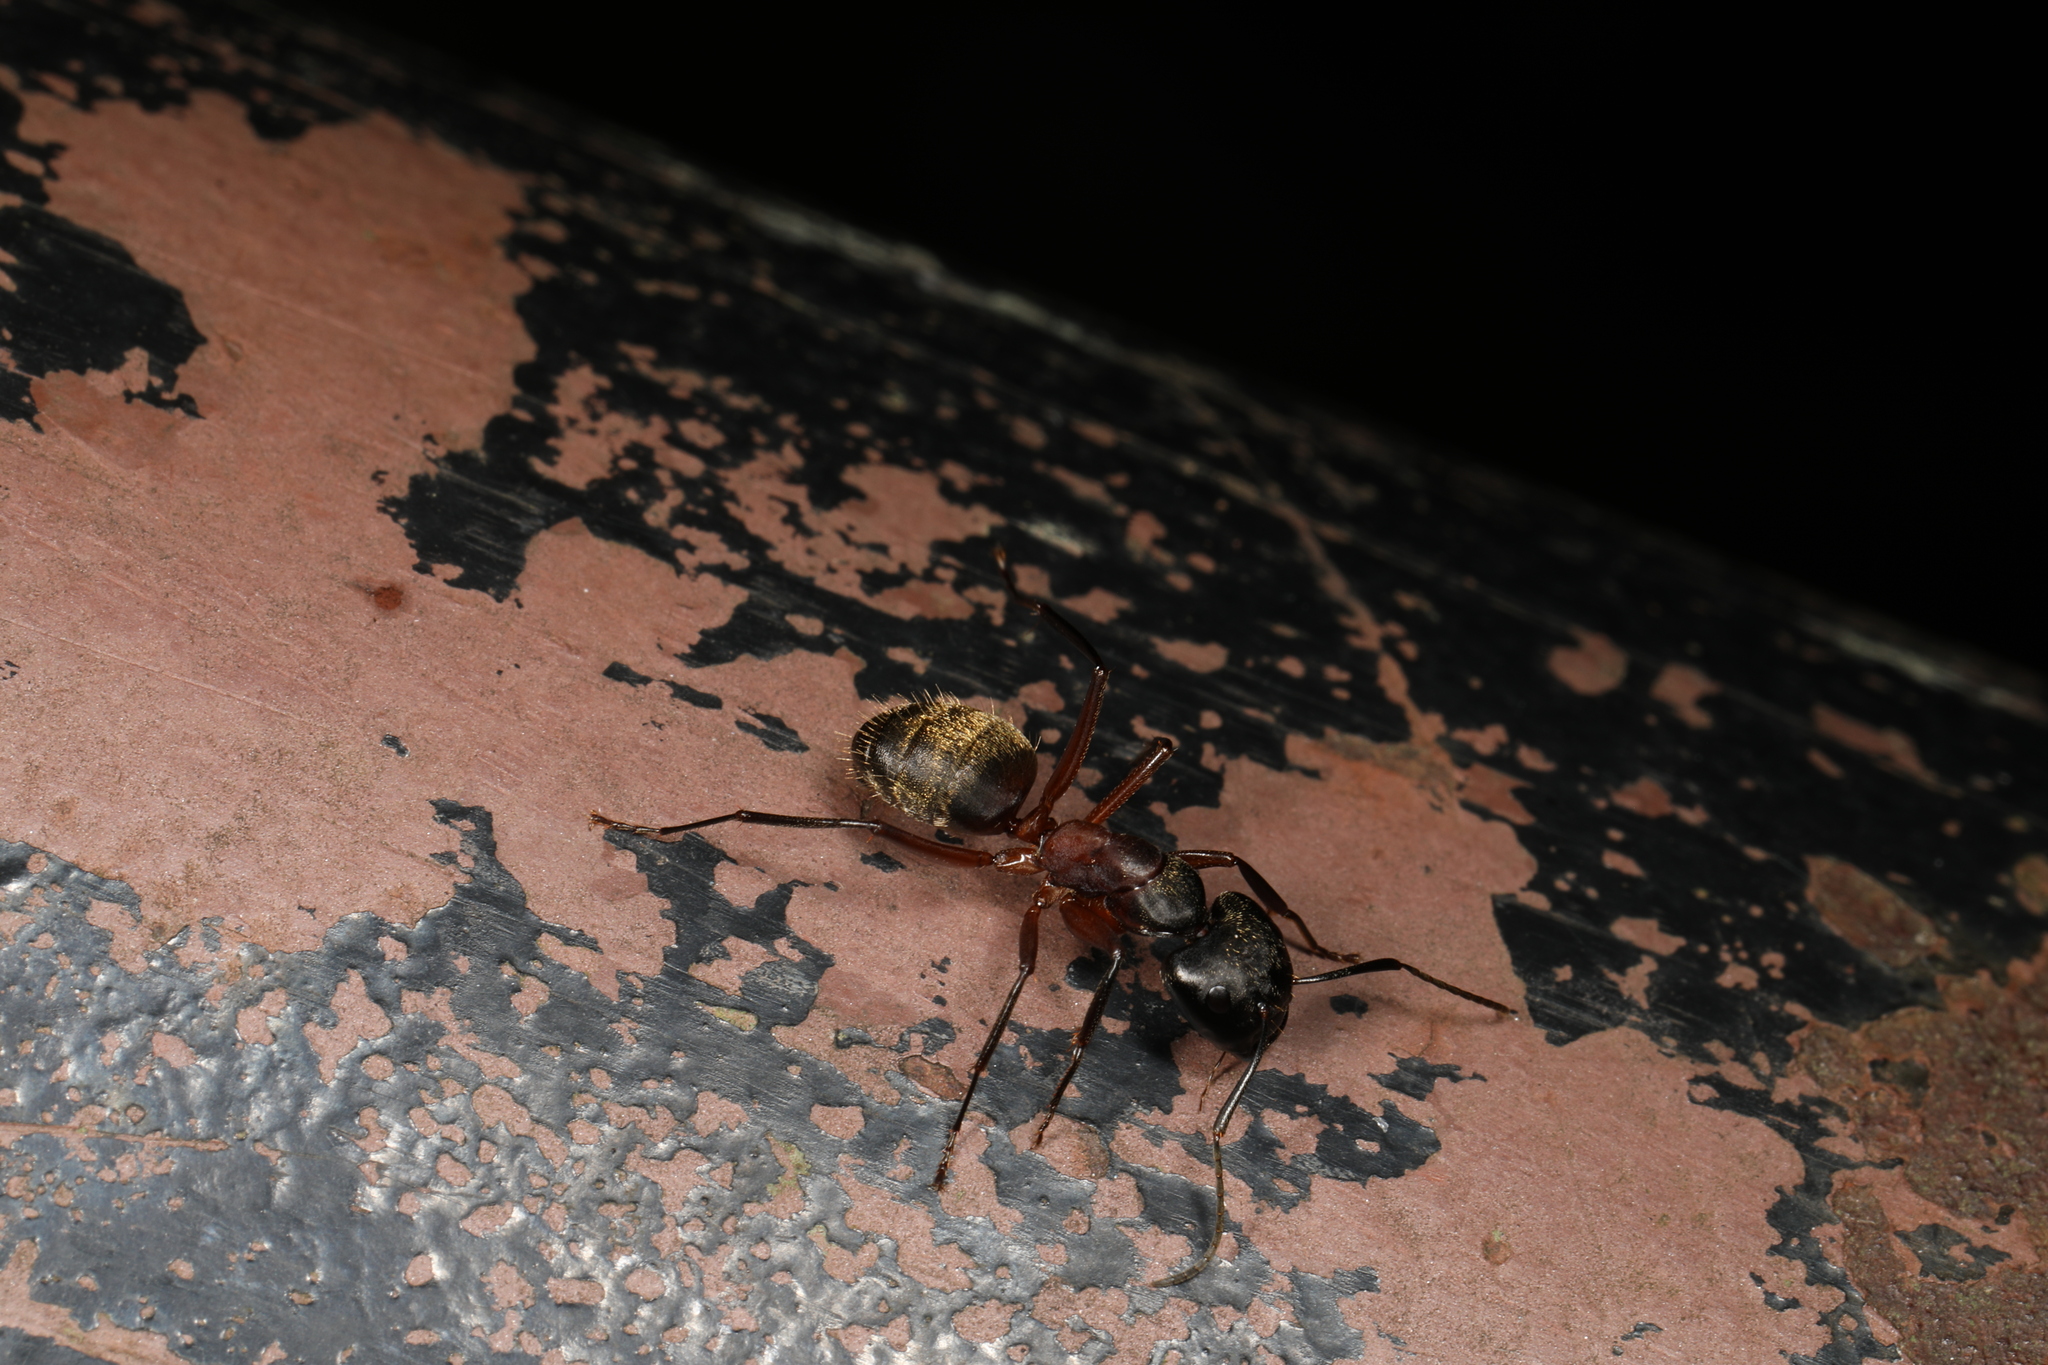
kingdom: Animalia
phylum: Arthropoda
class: Insecta
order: Hymenoptera
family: Formicidae
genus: Camponotus
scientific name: Camponotus chromaiodes
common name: Red carpenter ant
